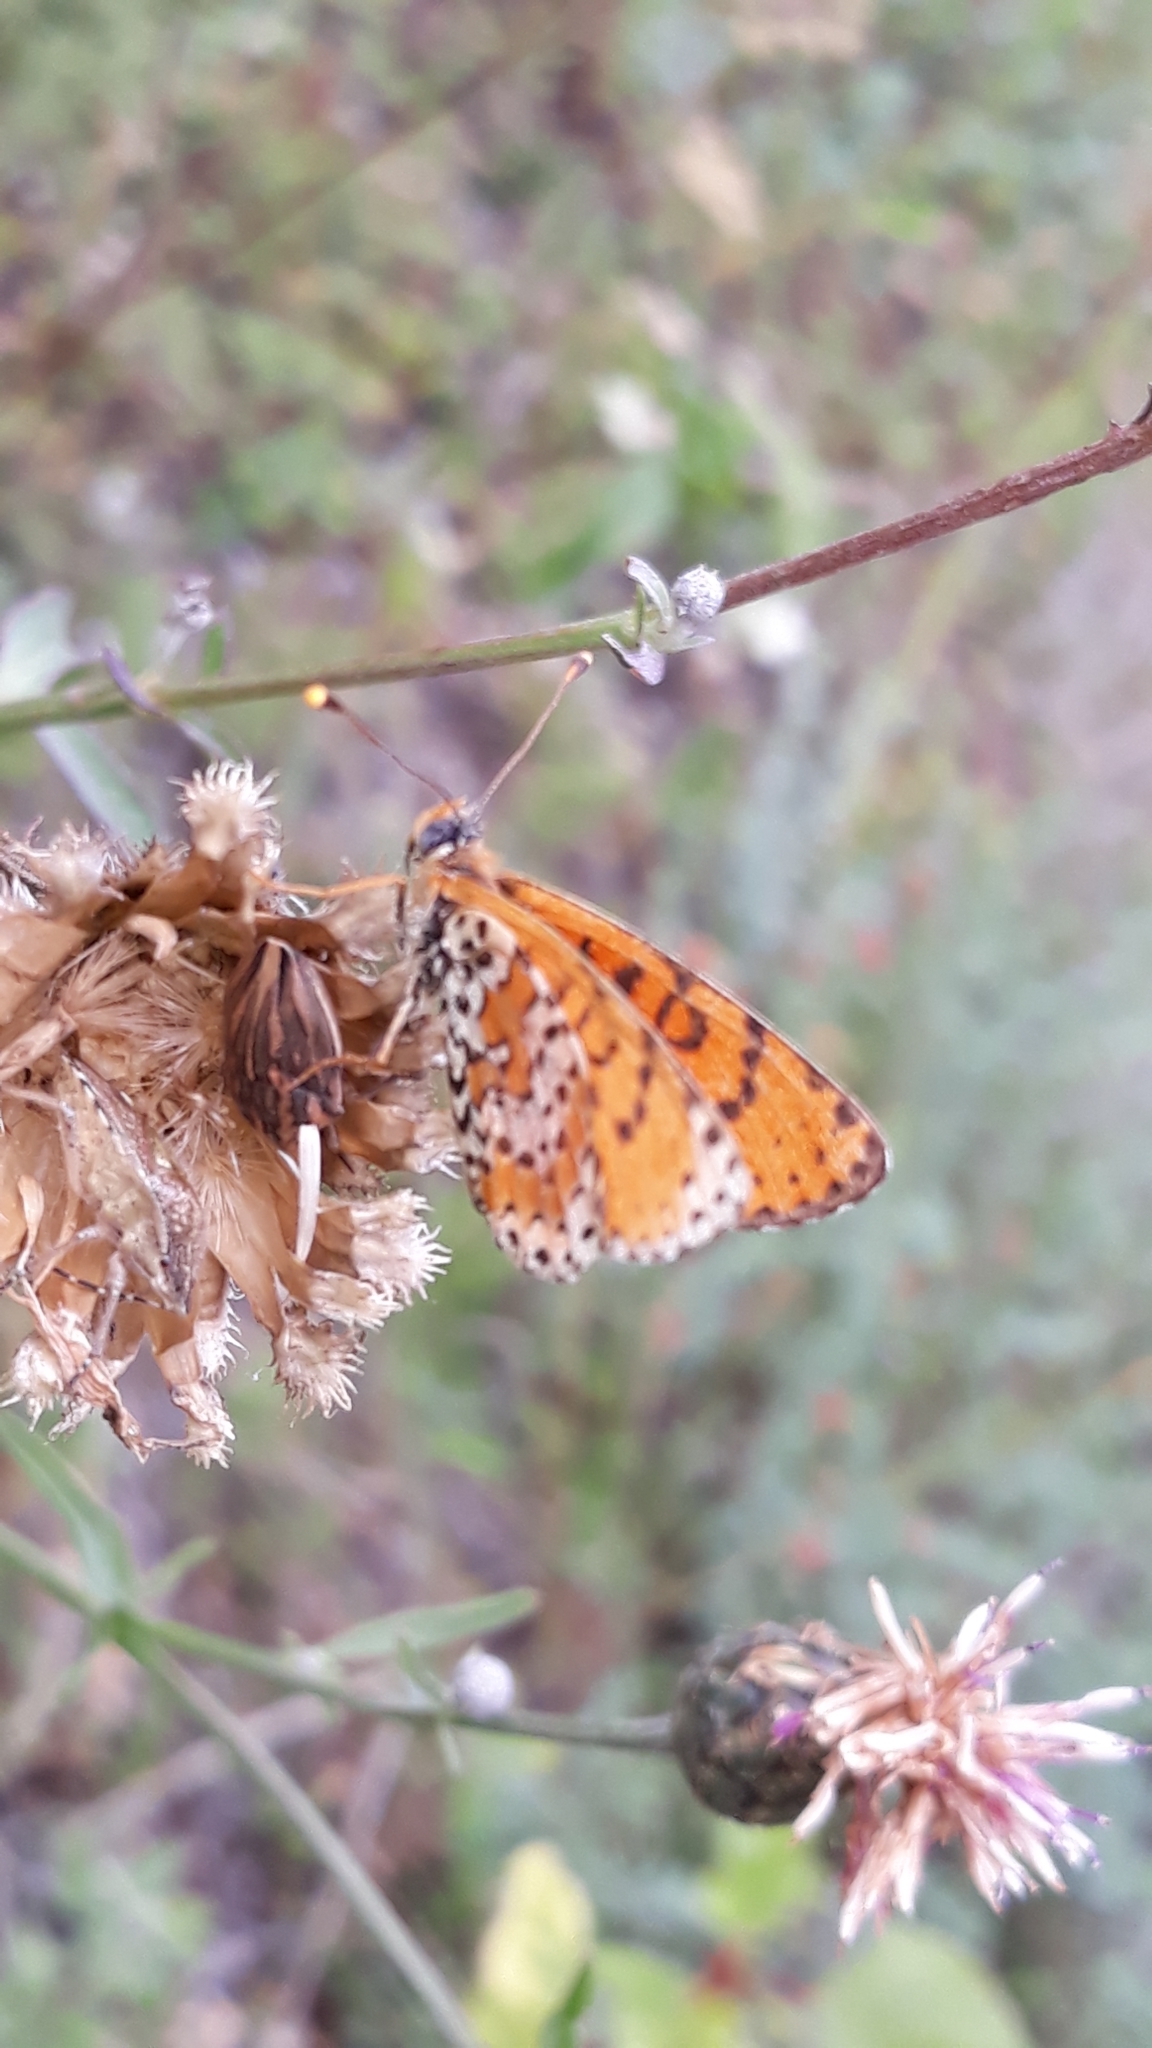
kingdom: Animalia
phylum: Arthropoda
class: Insecta
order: Lepidoptera
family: Nymphalidae
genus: Melitaea
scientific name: Melitaea didyma
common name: Spotted fritillary
